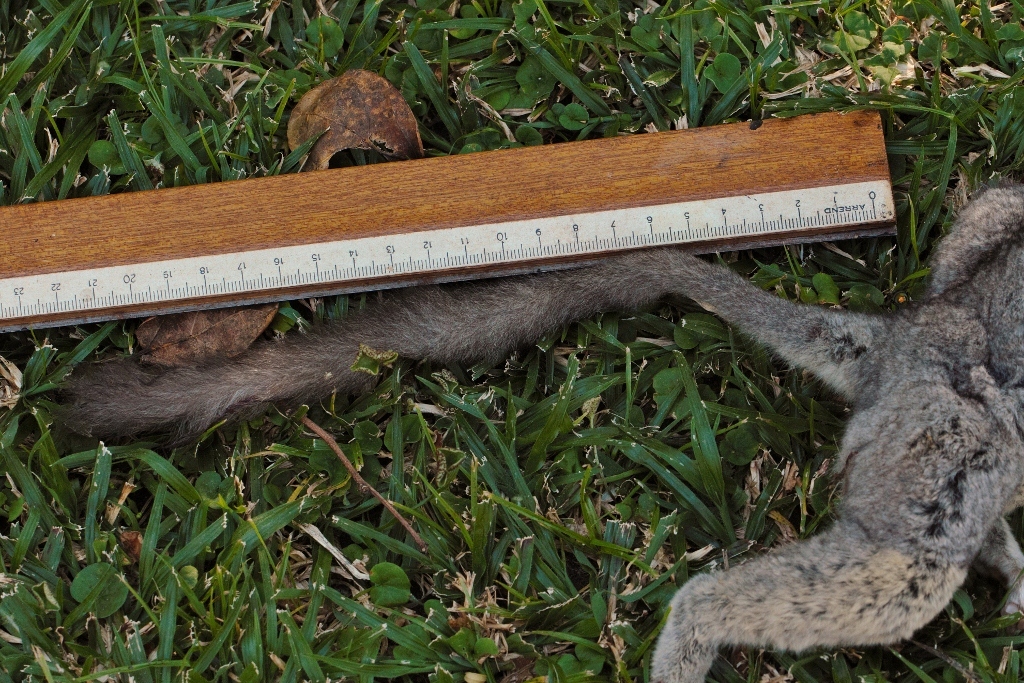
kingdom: Animalia
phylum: Chordata
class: Mammalia
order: Primates
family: Galagidae
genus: Galago
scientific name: Galago moholi
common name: Moholi bushbaby
